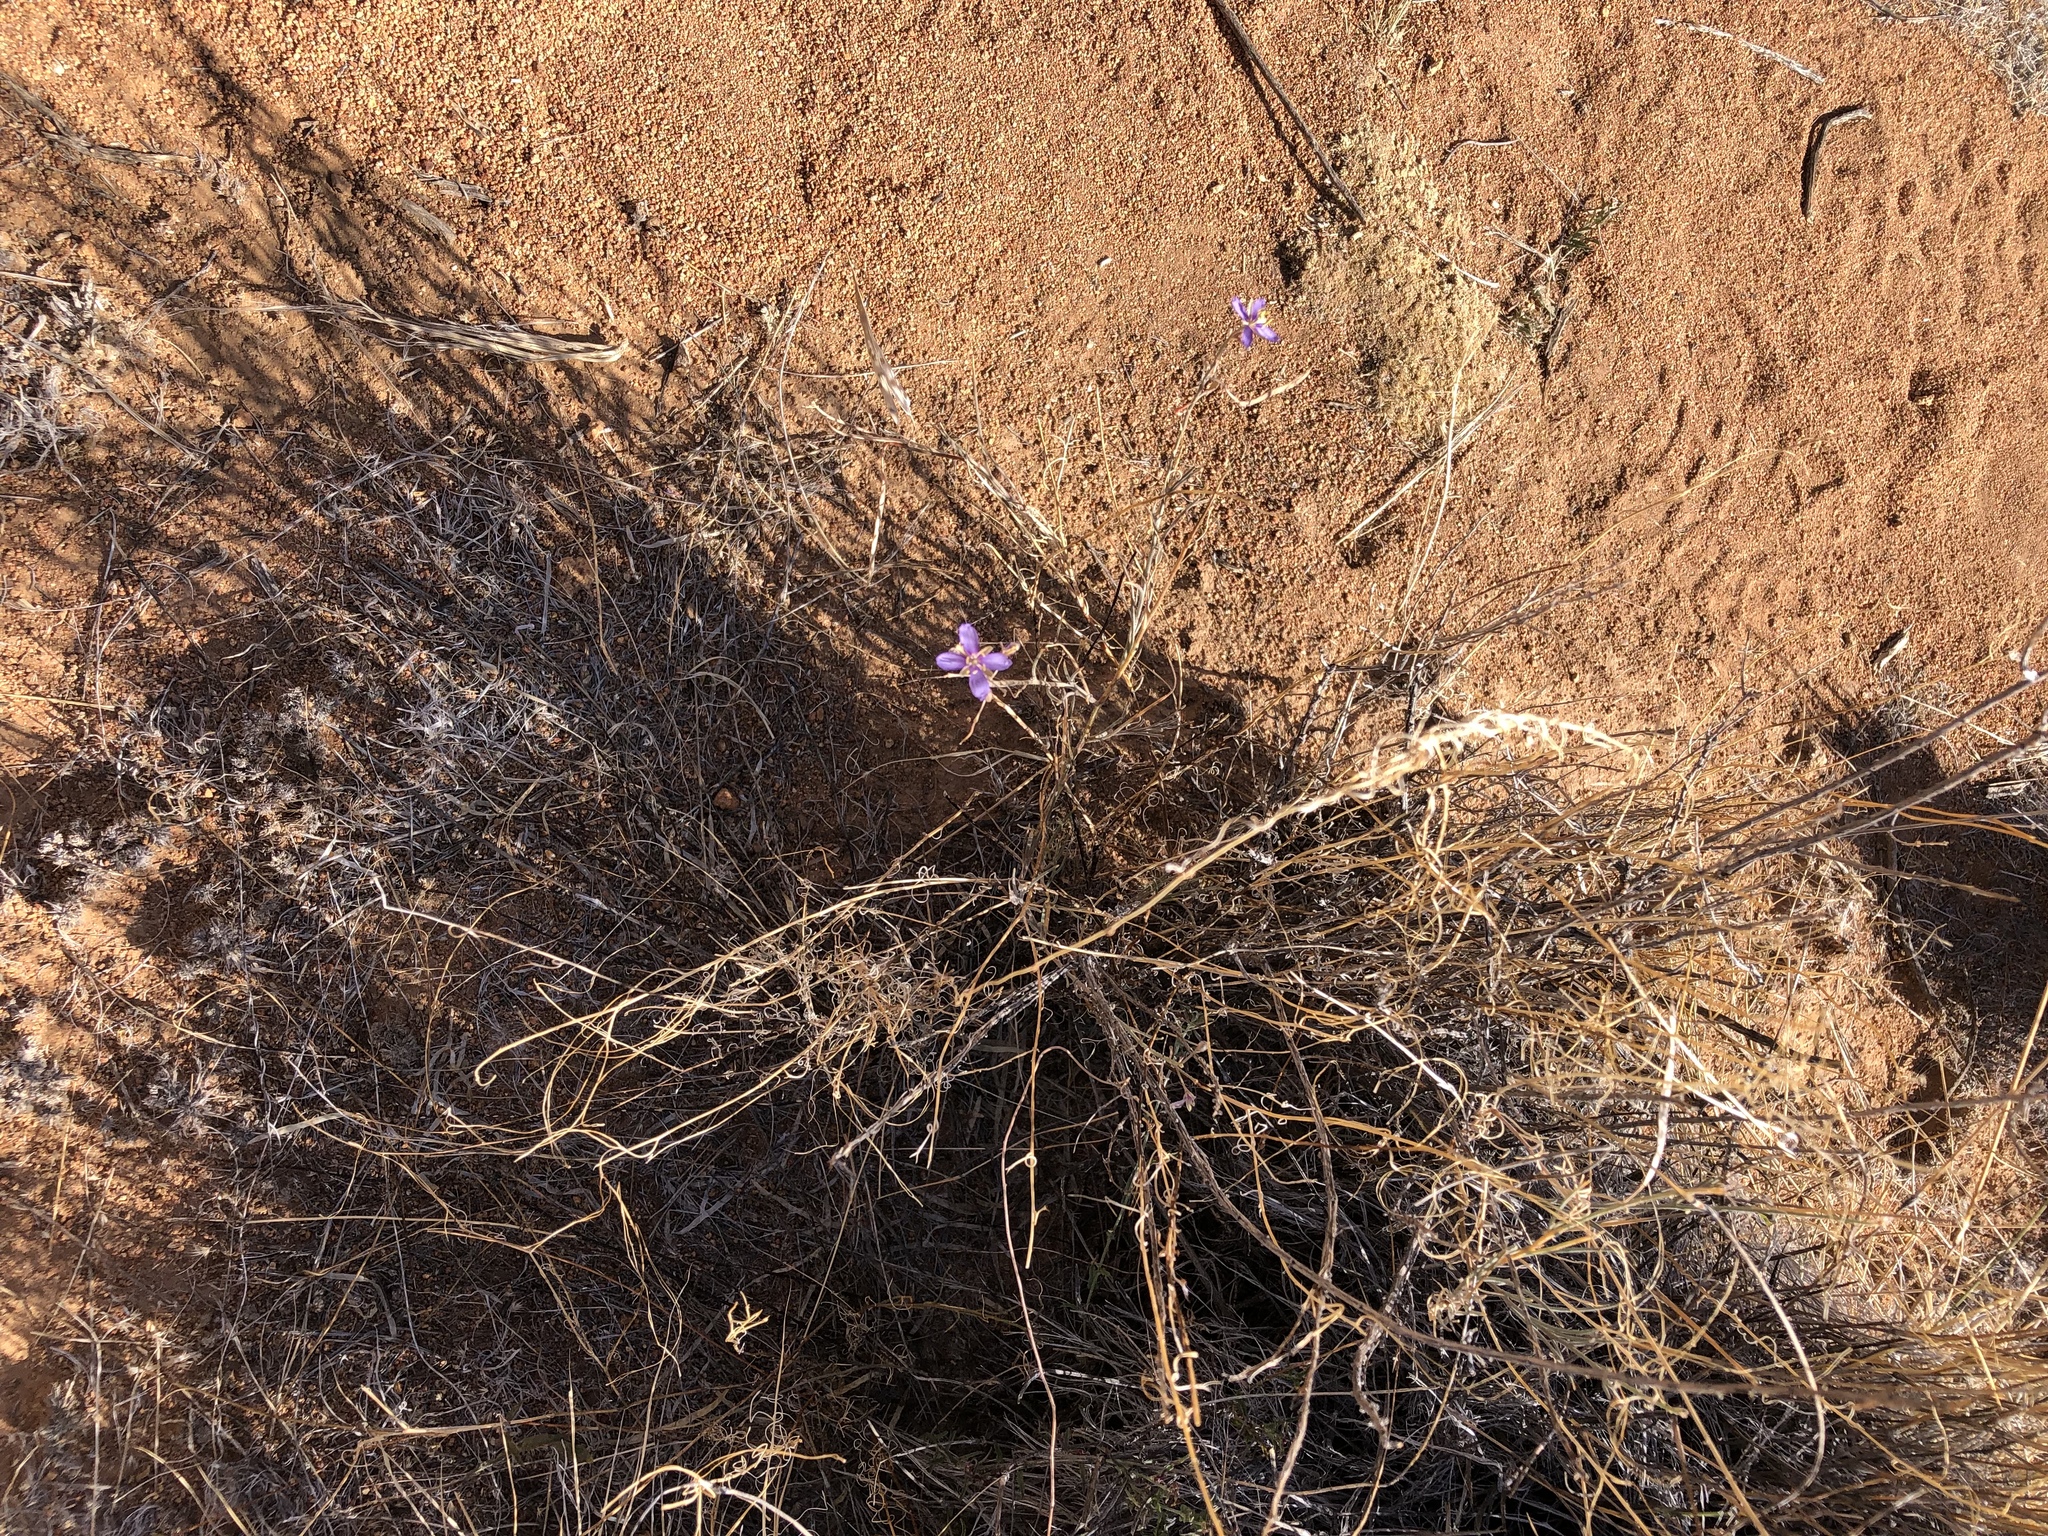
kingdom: Plantae
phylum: Tracheophyta
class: Magnoliopsida
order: Brassicales
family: Brassicaceae
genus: Heliophila
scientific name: Heliophila minima
